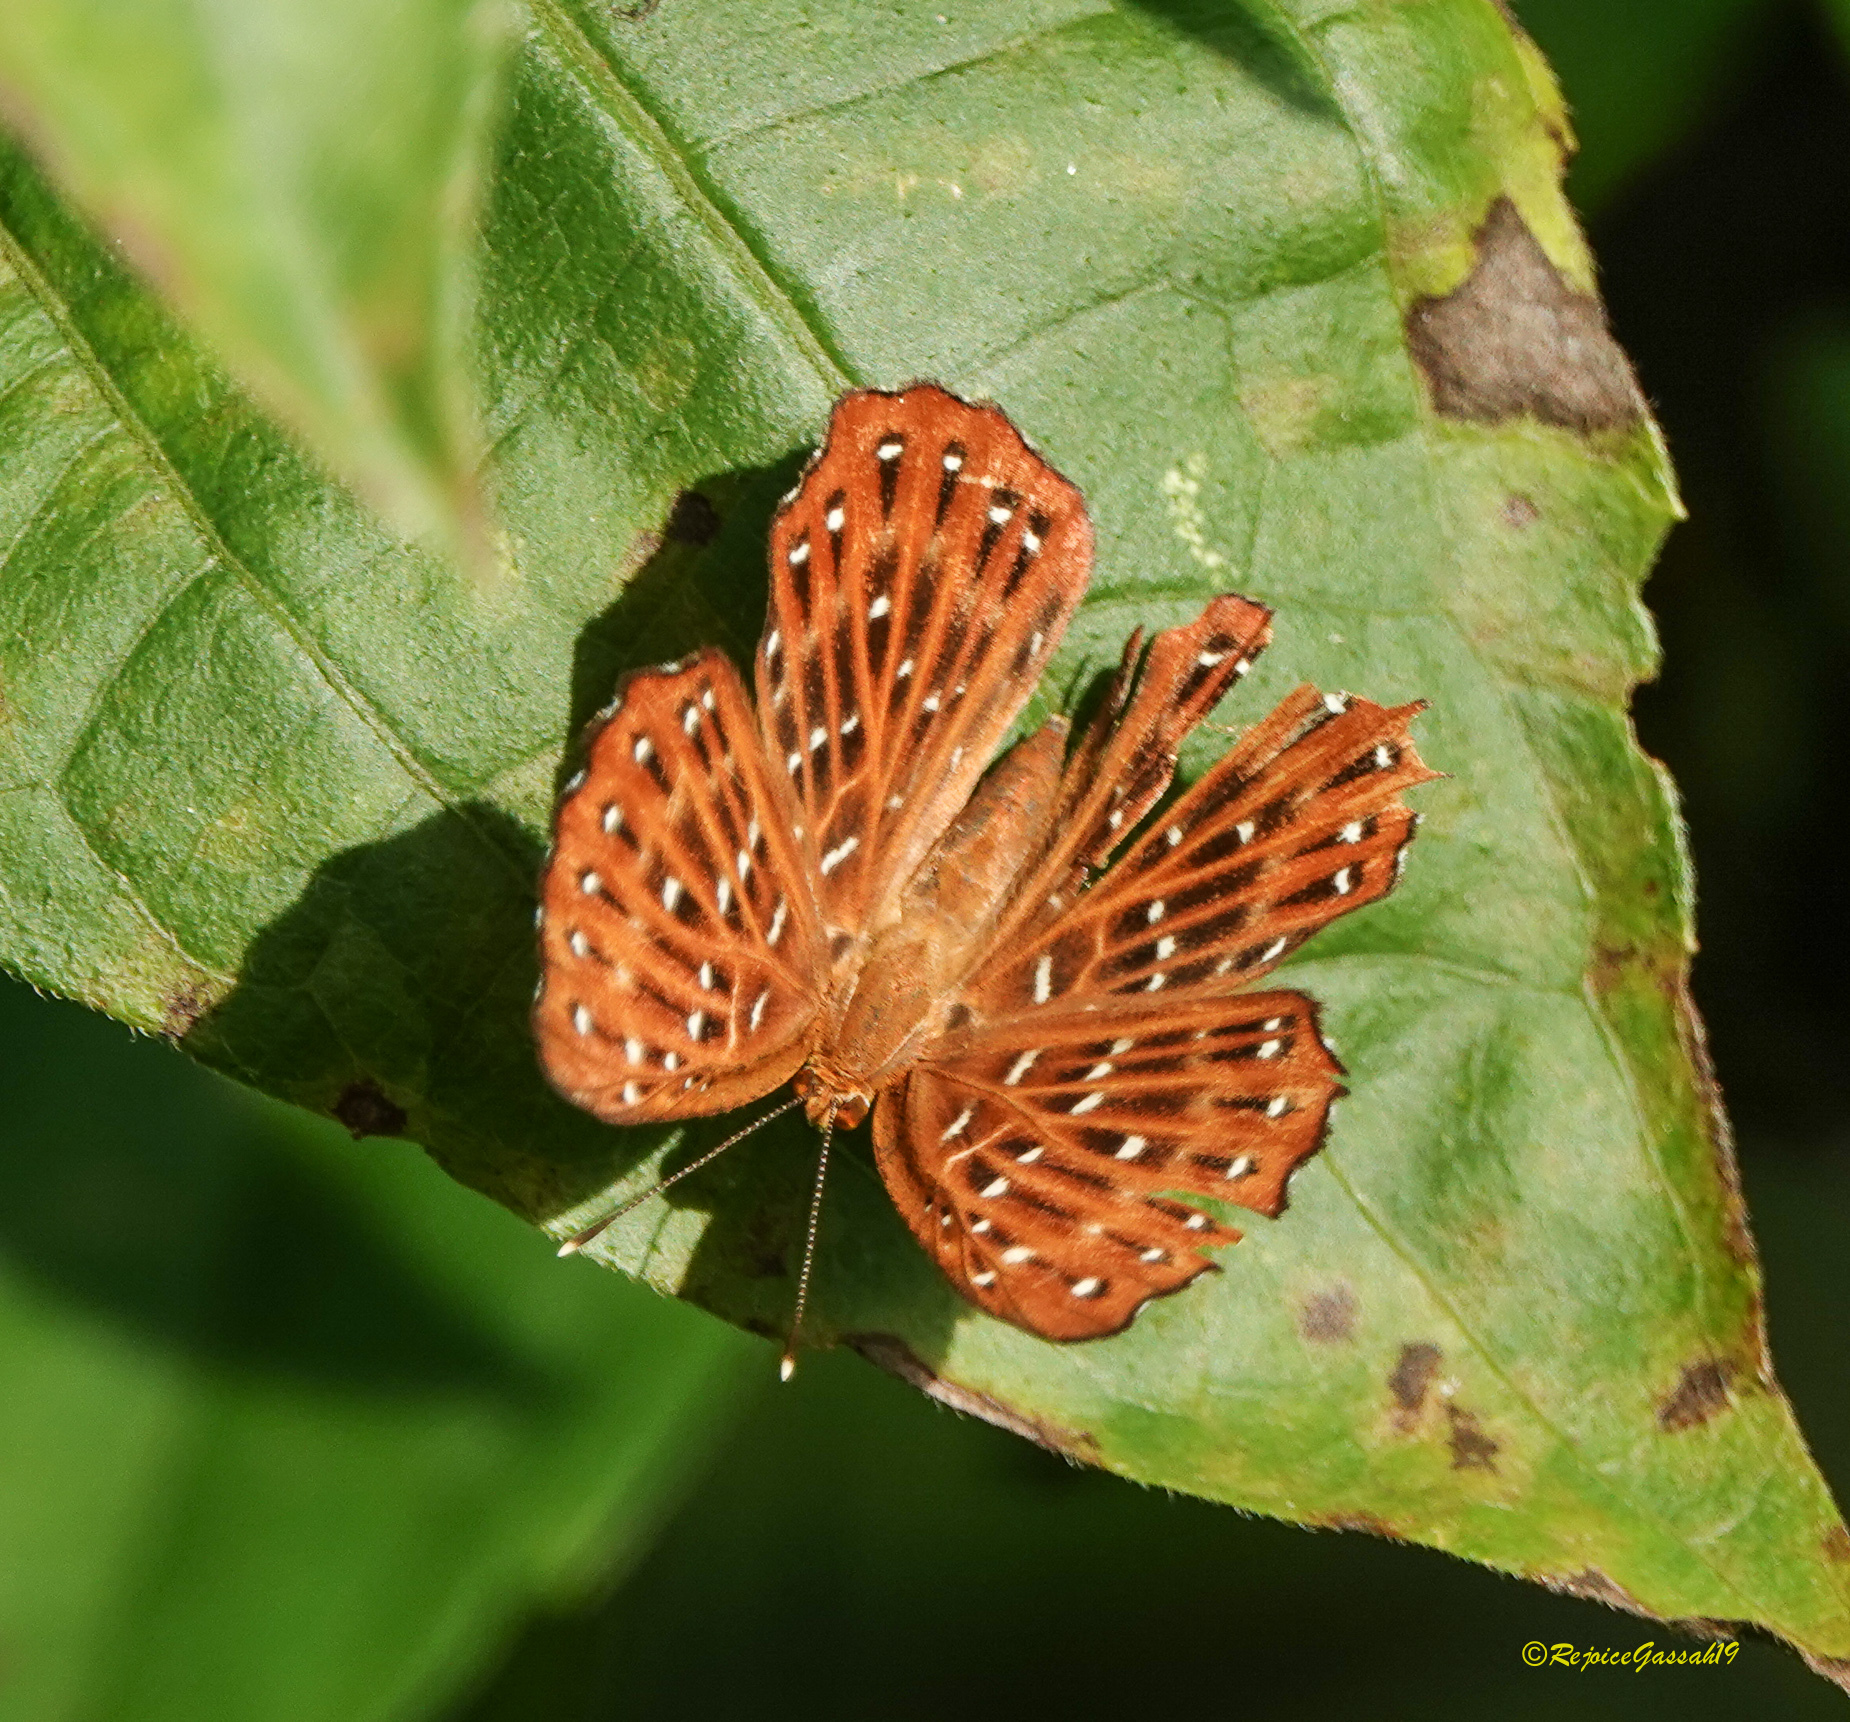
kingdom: Animalia
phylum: Arthropoda
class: Insecta
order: Lepidoptera
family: Riodinidae
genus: Zemeros
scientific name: Zemeros flegyas
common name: Punchinello
